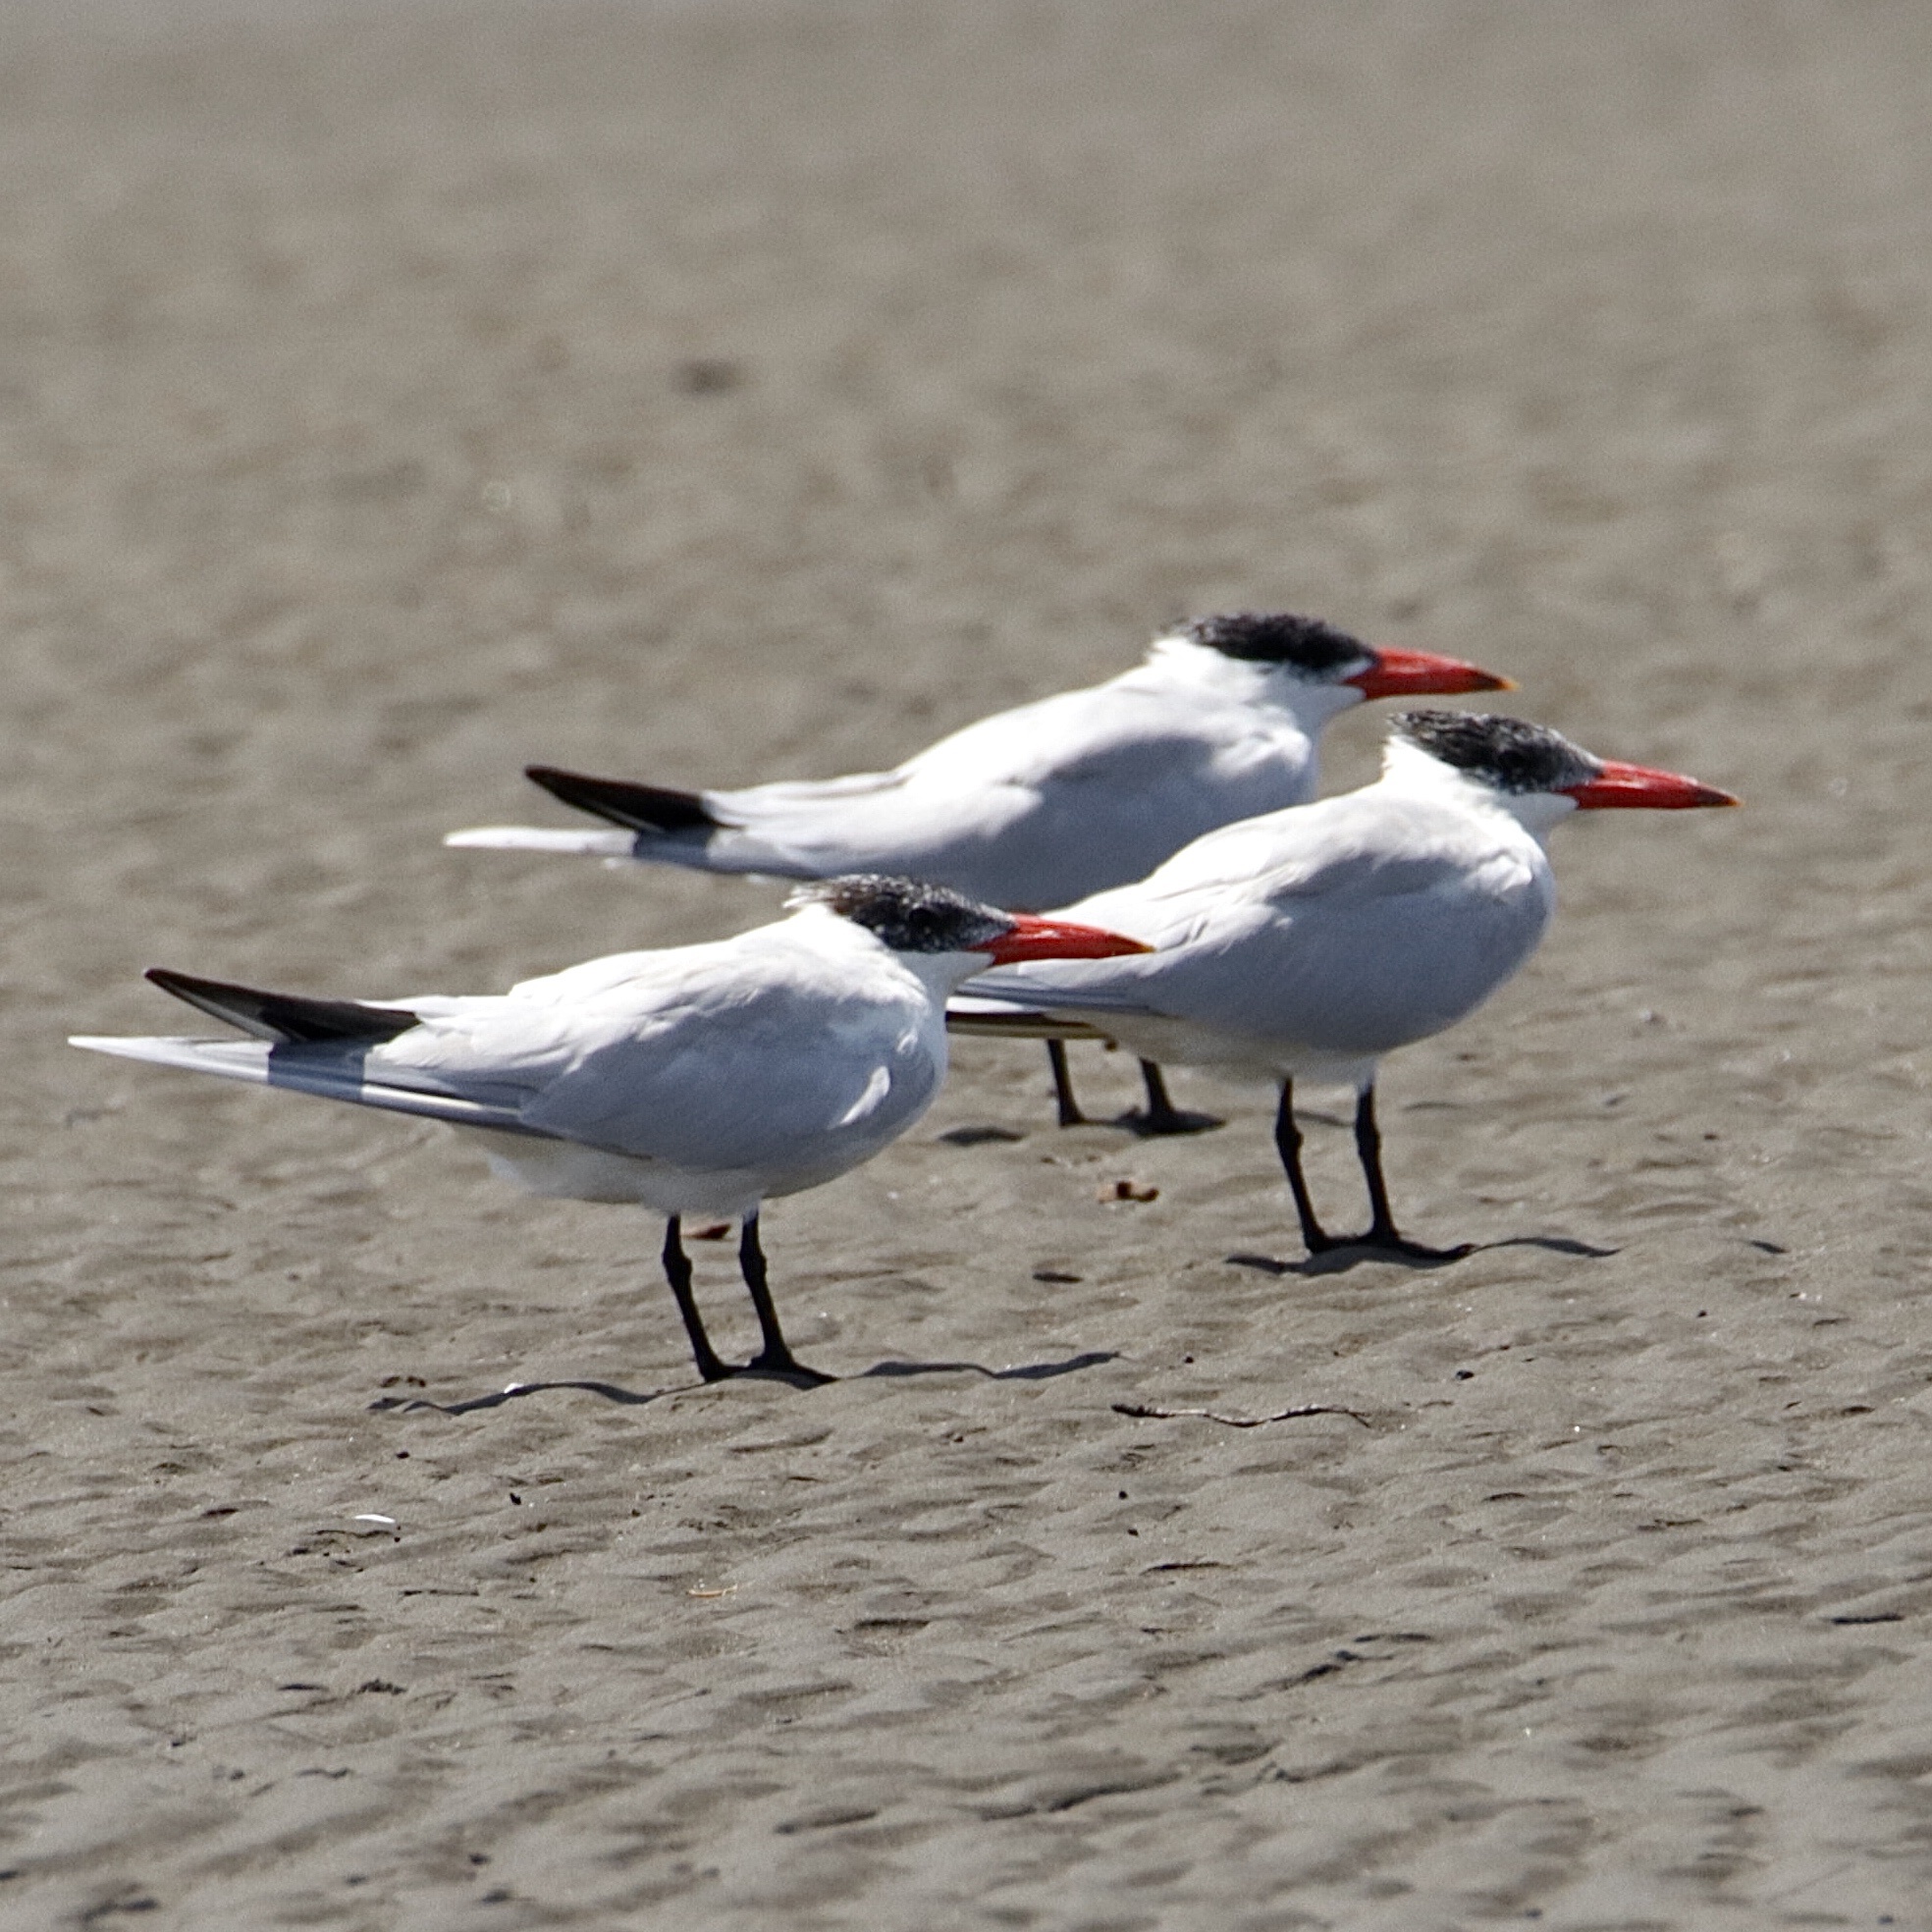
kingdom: Animalia
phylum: Chordata
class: Aves
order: Charadriiformes
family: Laridae
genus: Hydroprogne
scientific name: Hydroprogne caspia
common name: Caspian tern
